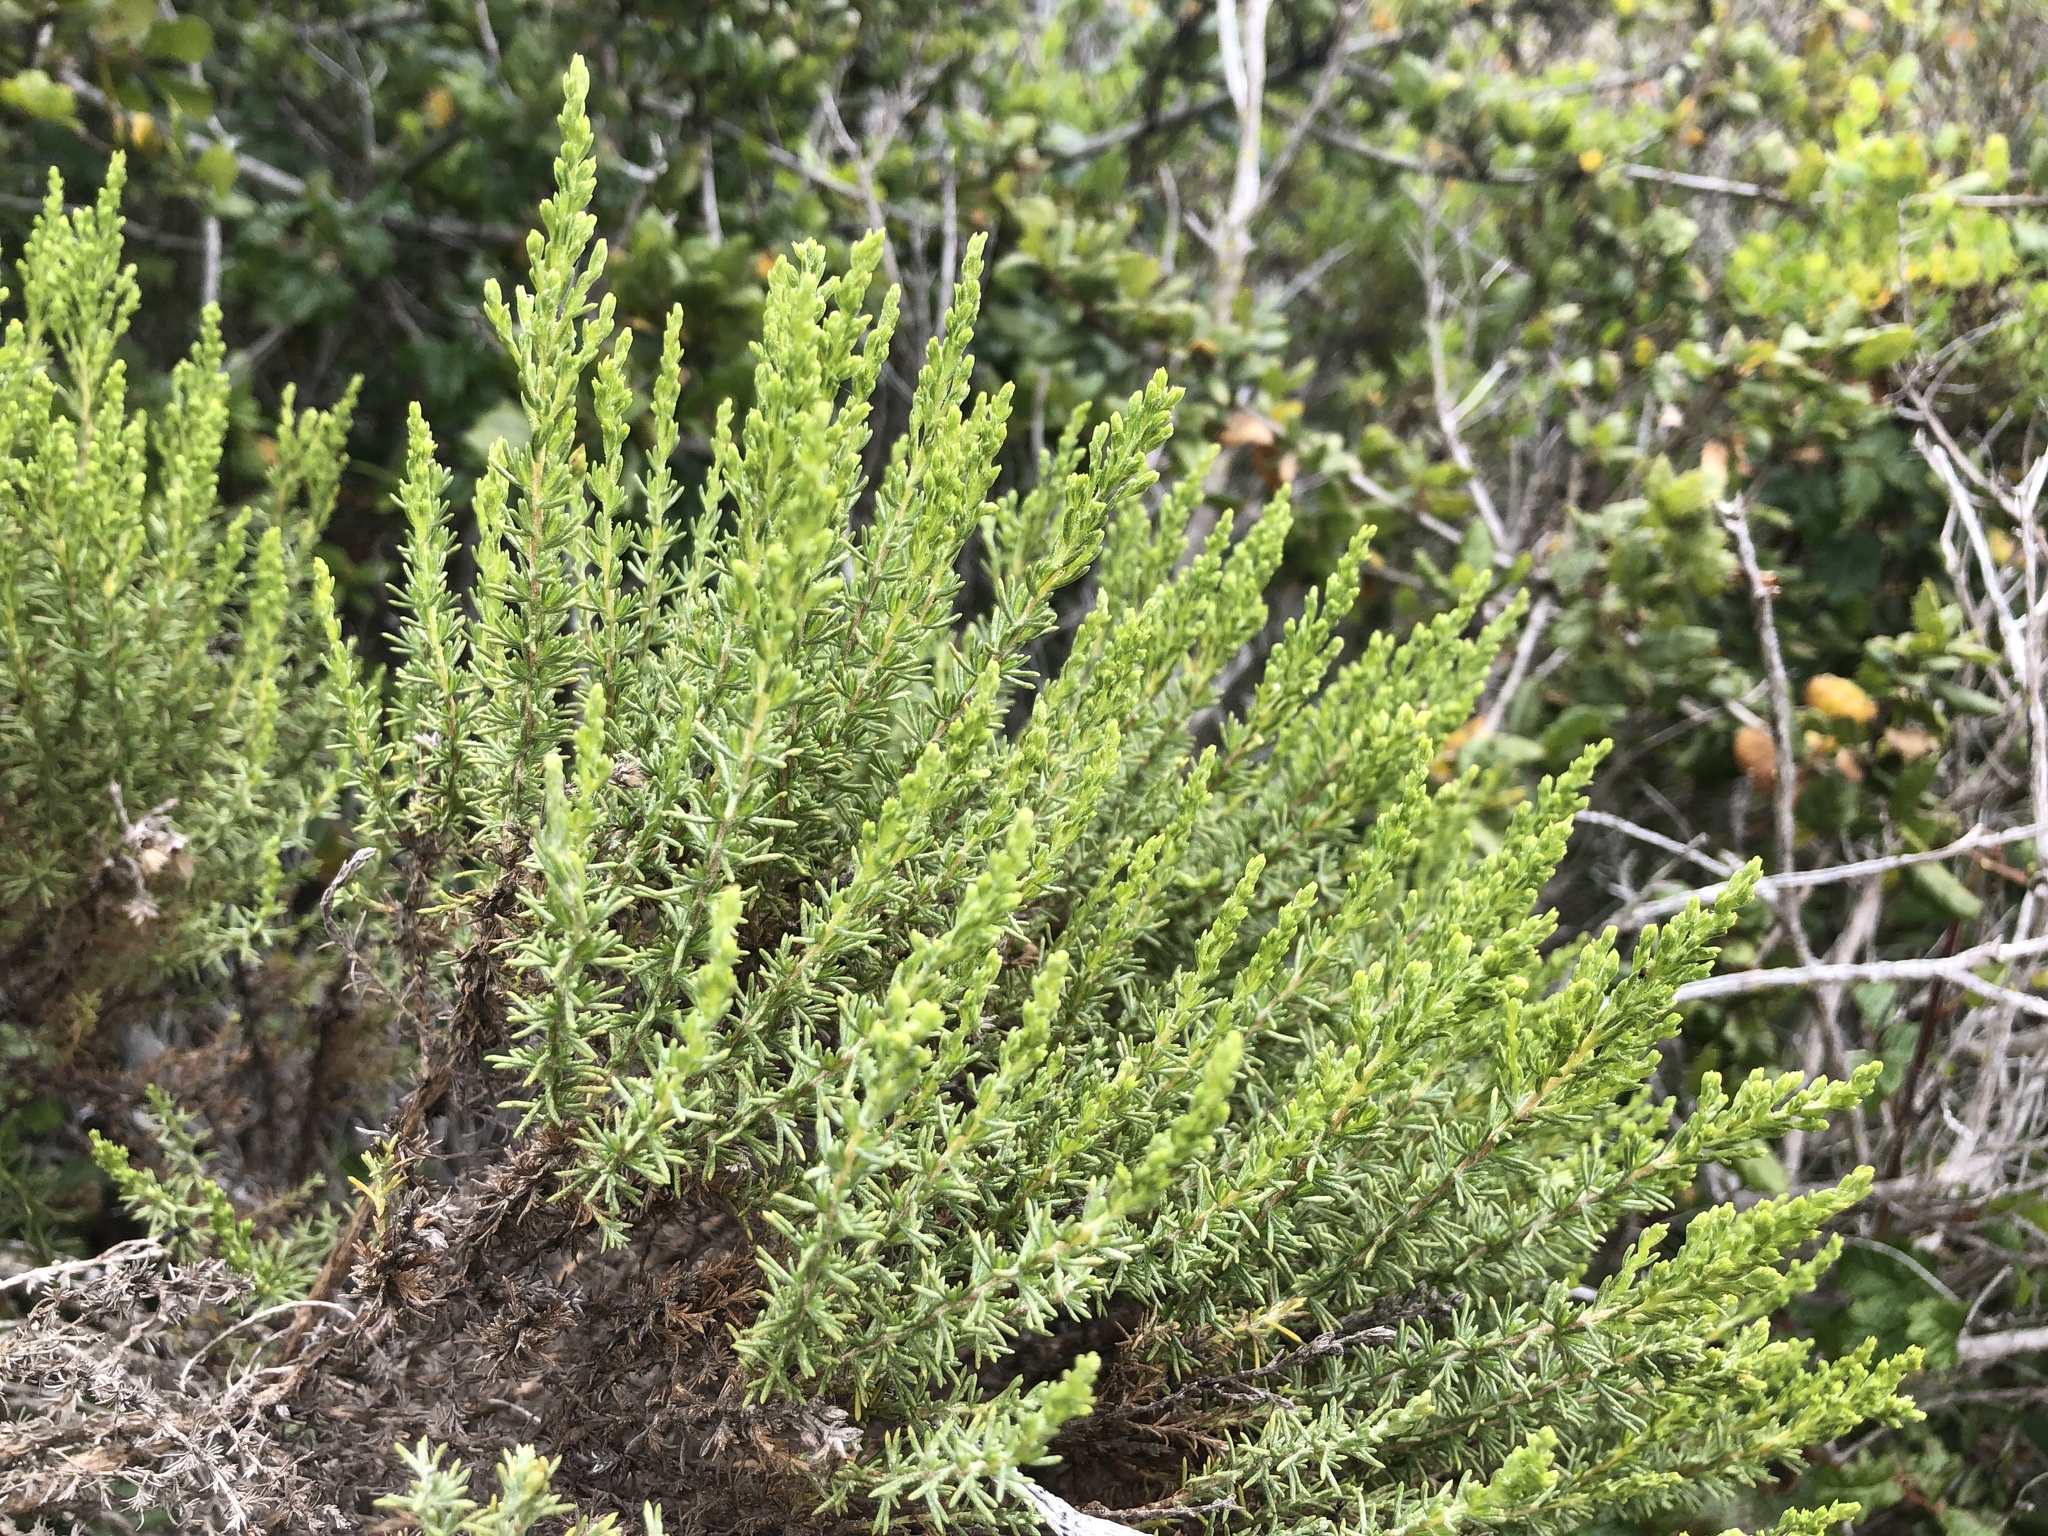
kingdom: Plantae
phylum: Tracheophyta
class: Magnoliopsida
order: Asterales
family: Asteraceae
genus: Ericameria
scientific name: Ericameria ericoides
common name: California goldenbush
